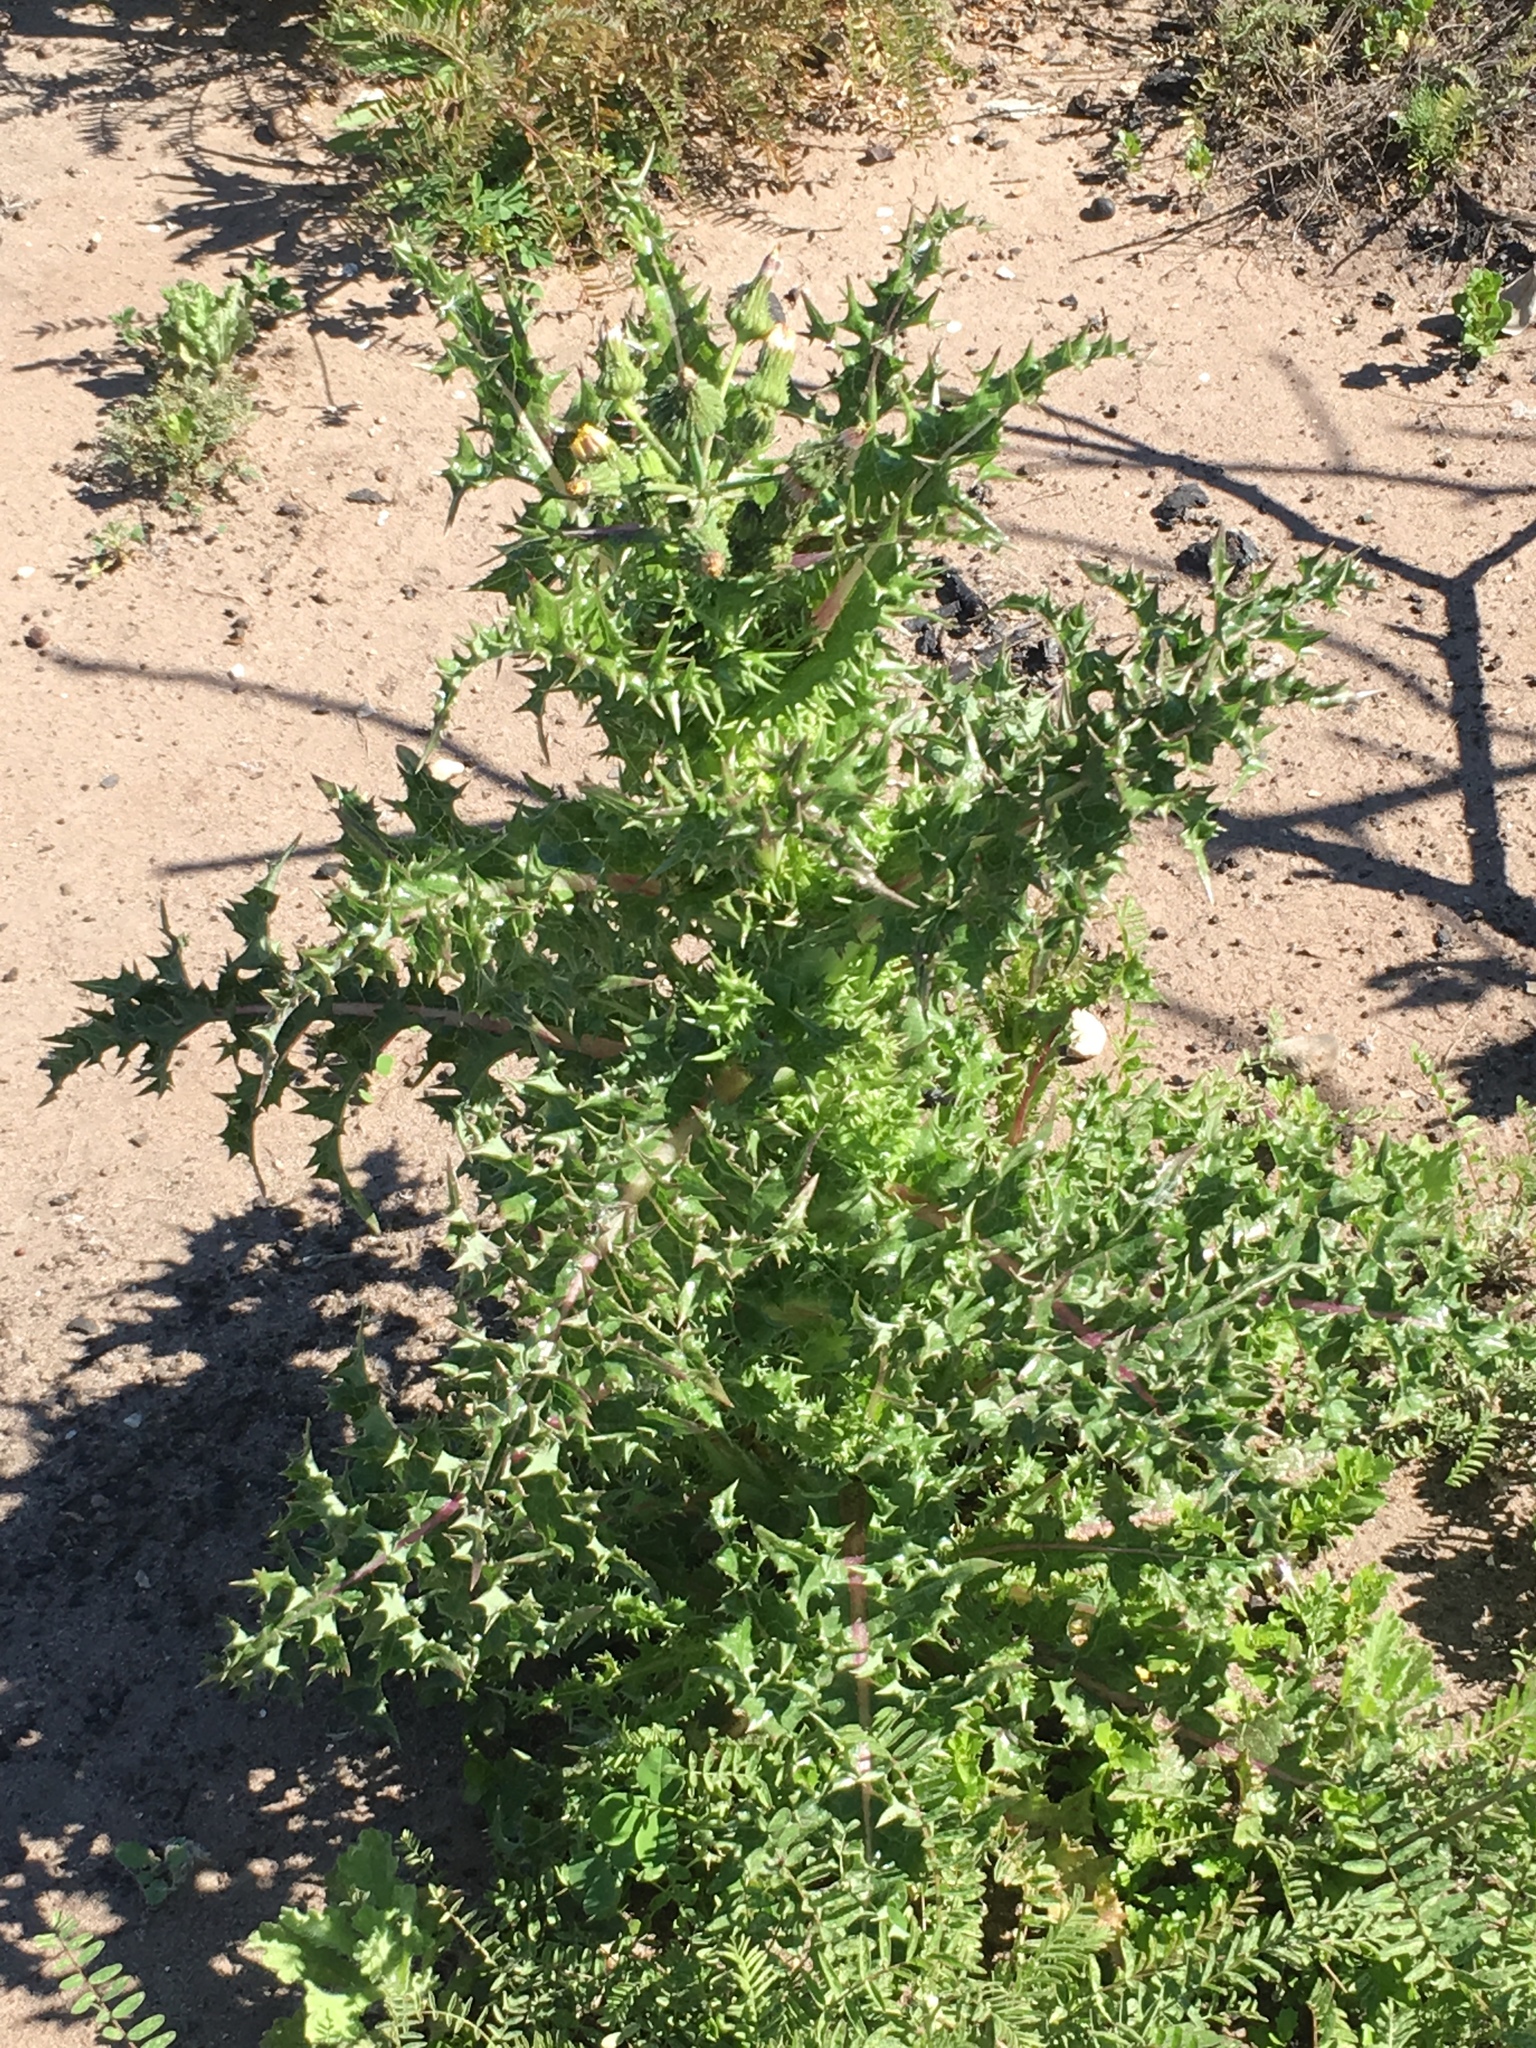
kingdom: Plantae
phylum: Tracheophyta
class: Magnoliopsida
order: Asterales
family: Asteraceae
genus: Sonchus
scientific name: Sonchus asper
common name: Prickly sow-thistle
